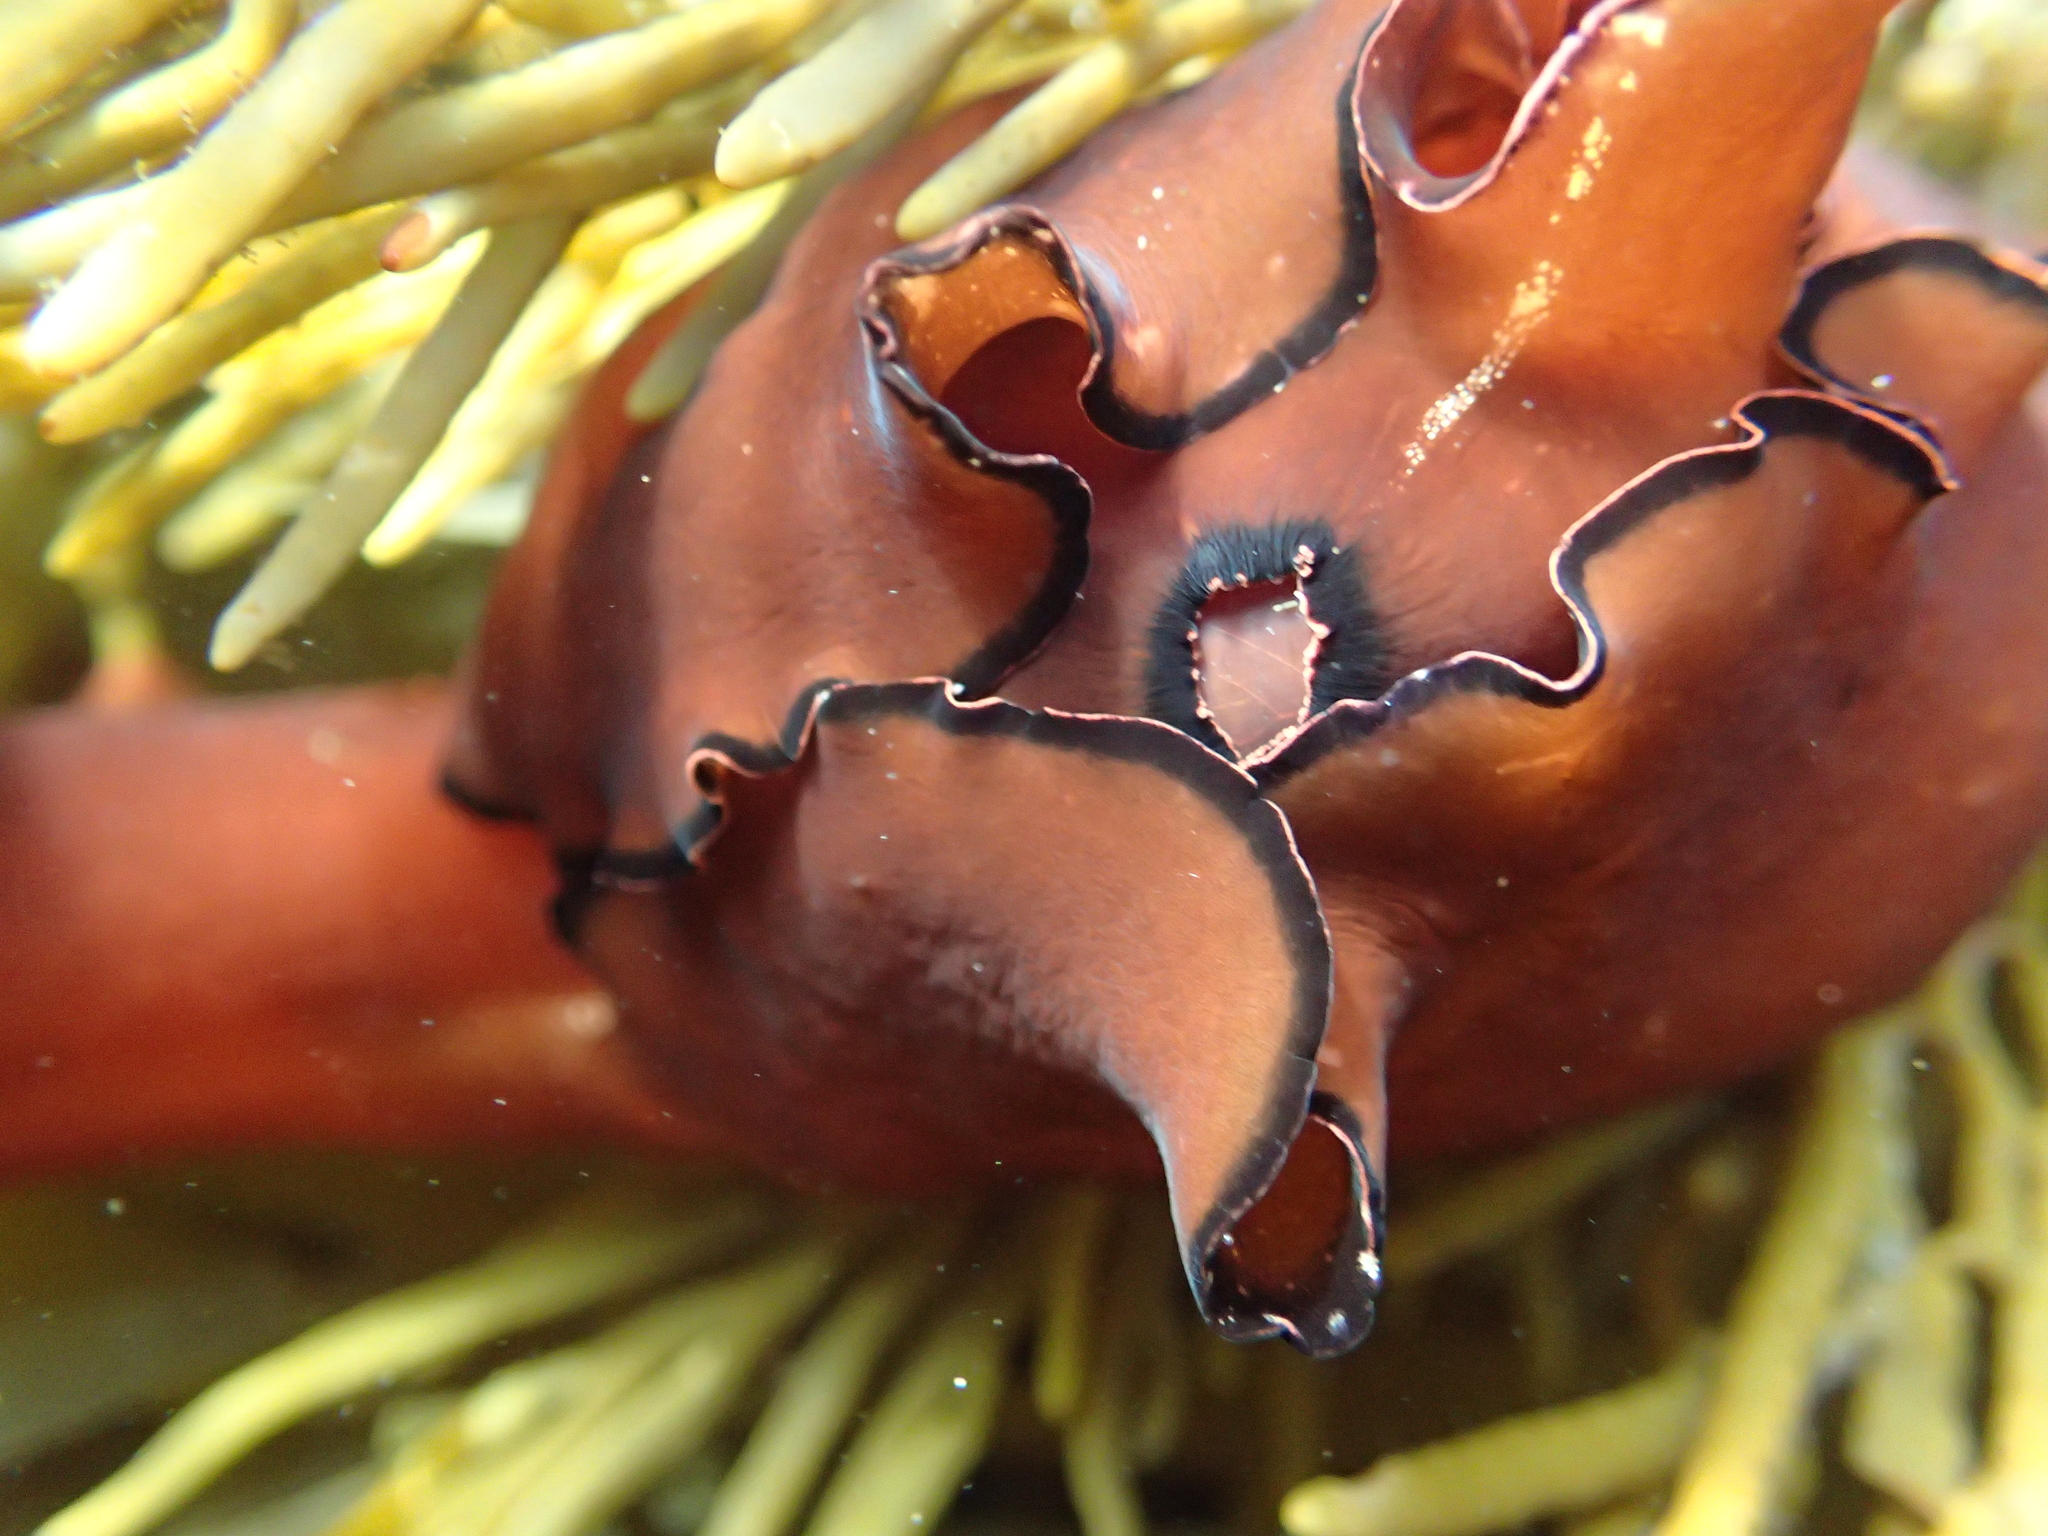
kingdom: Animalia
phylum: Mollusca
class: Gastropoda
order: Aplysiida
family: Aplysiidae
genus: Aplysia
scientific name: Aplysia concava
